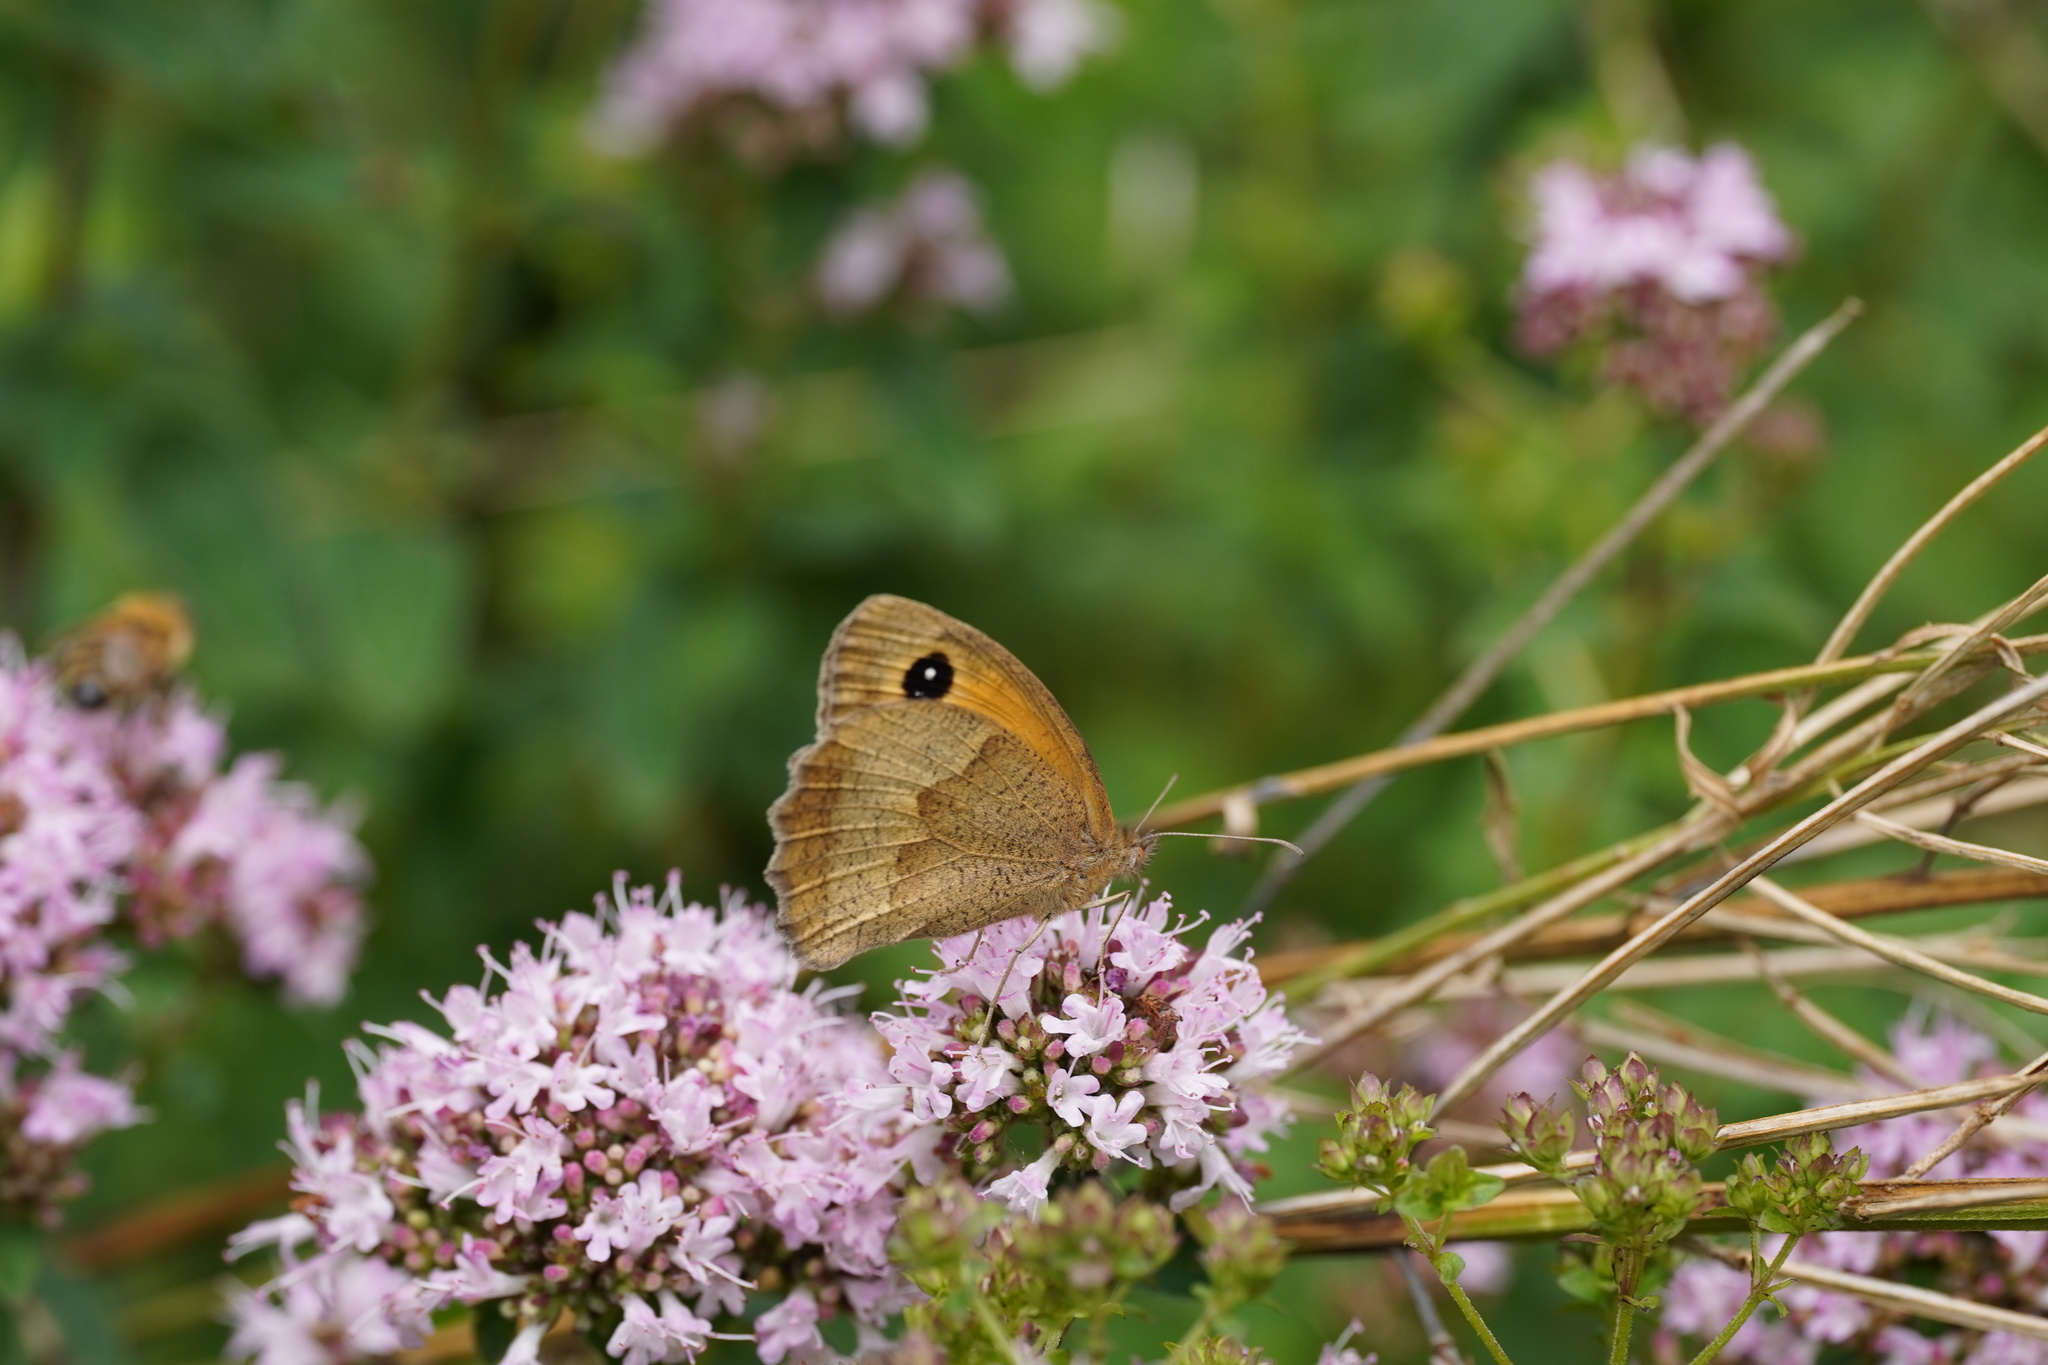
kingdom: Animalia
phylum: Arthropoda
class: Insecta
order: Lepidoptera
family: Nymphalidae
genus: Maniola
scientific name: Maniola jurtina
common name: Meadow brown
